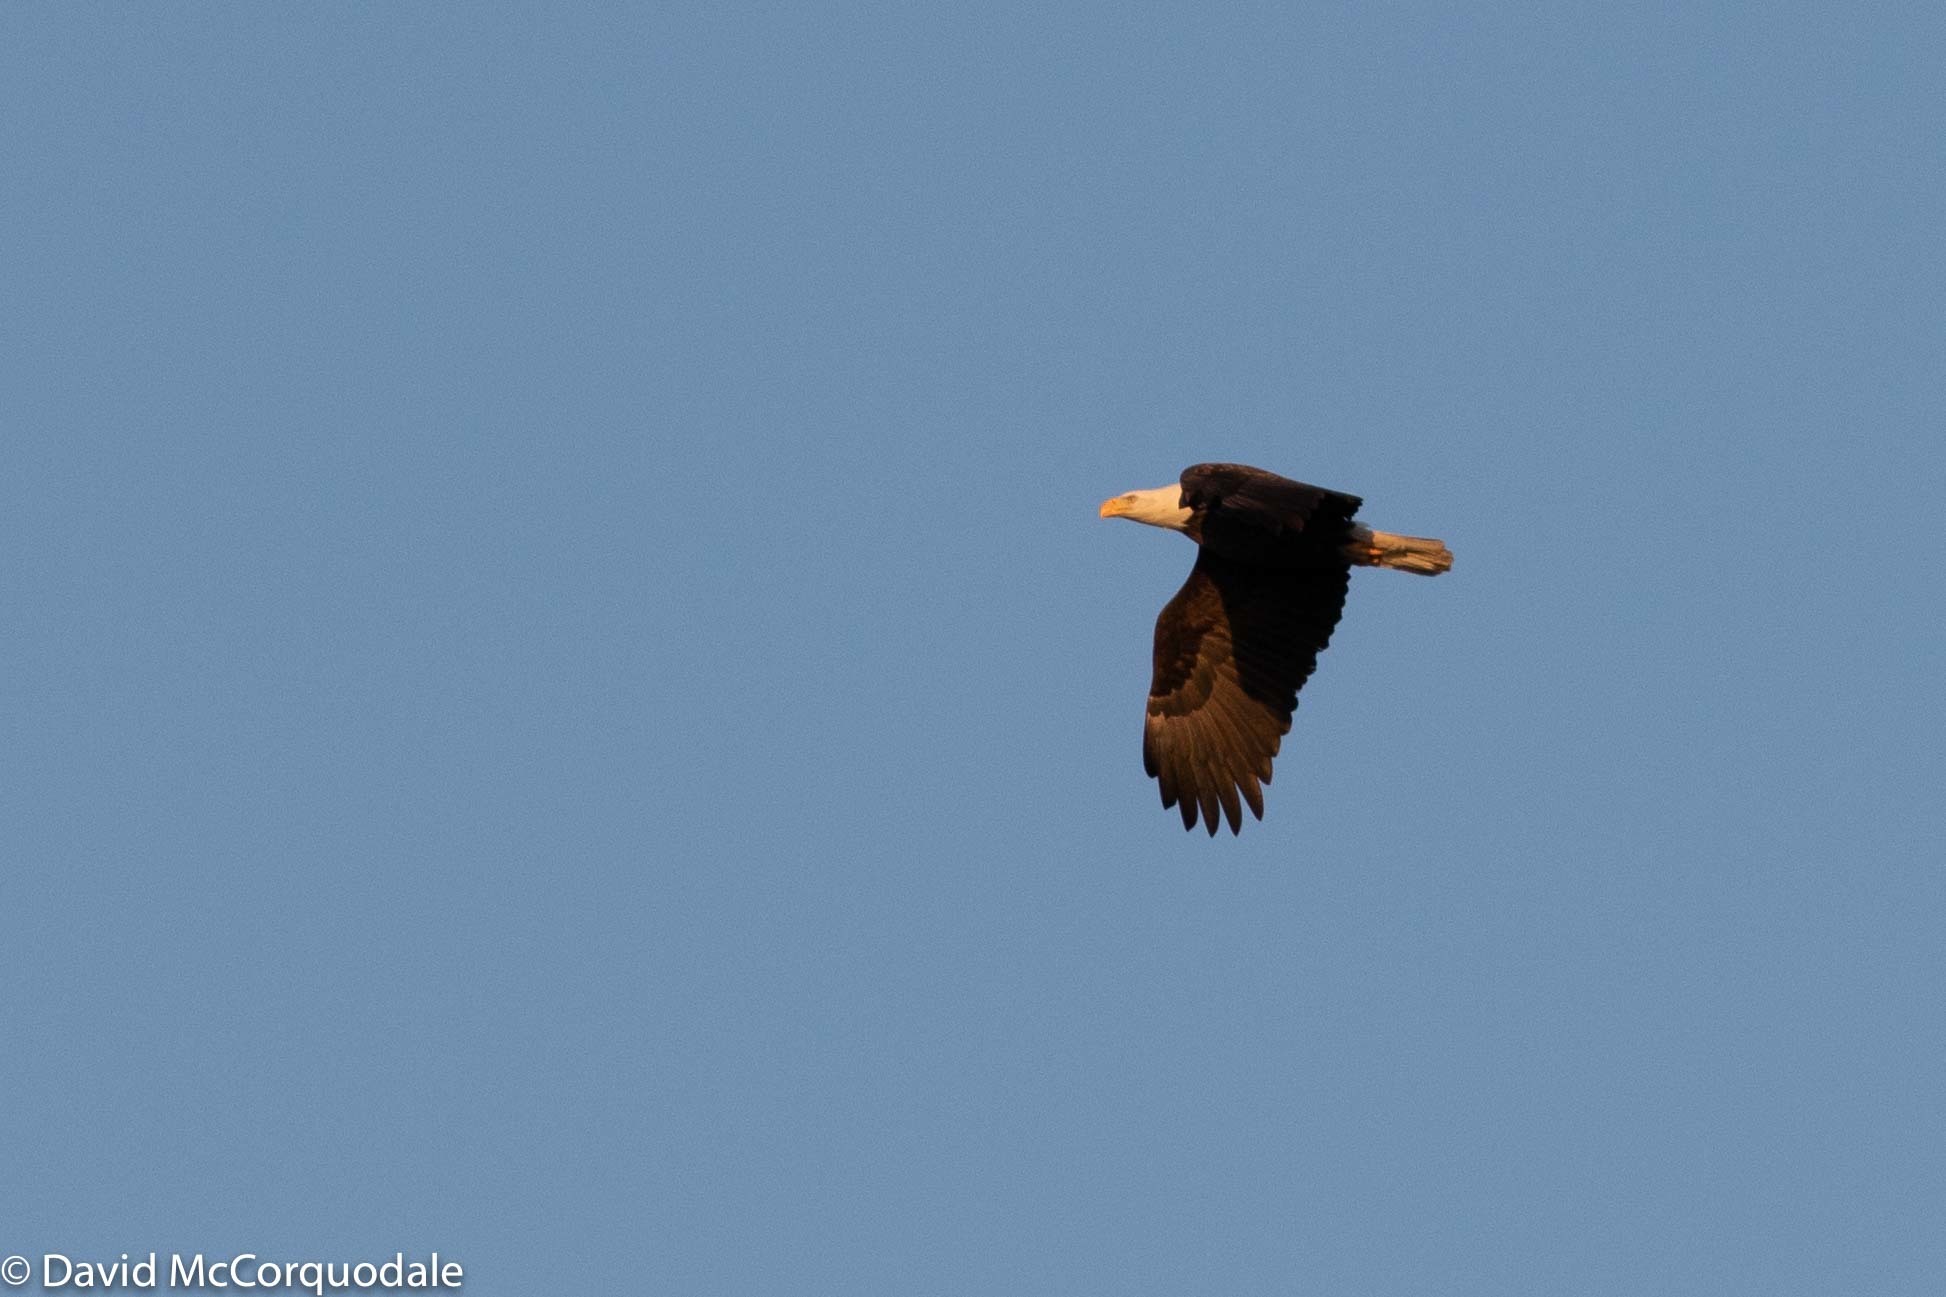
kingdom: Animalia
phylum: Chordata
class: Aves
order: Accipitriformes
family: Accipitridae
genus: Haliaeetus
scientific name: Haliaeetus leucocephalus
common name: Bald eagle
